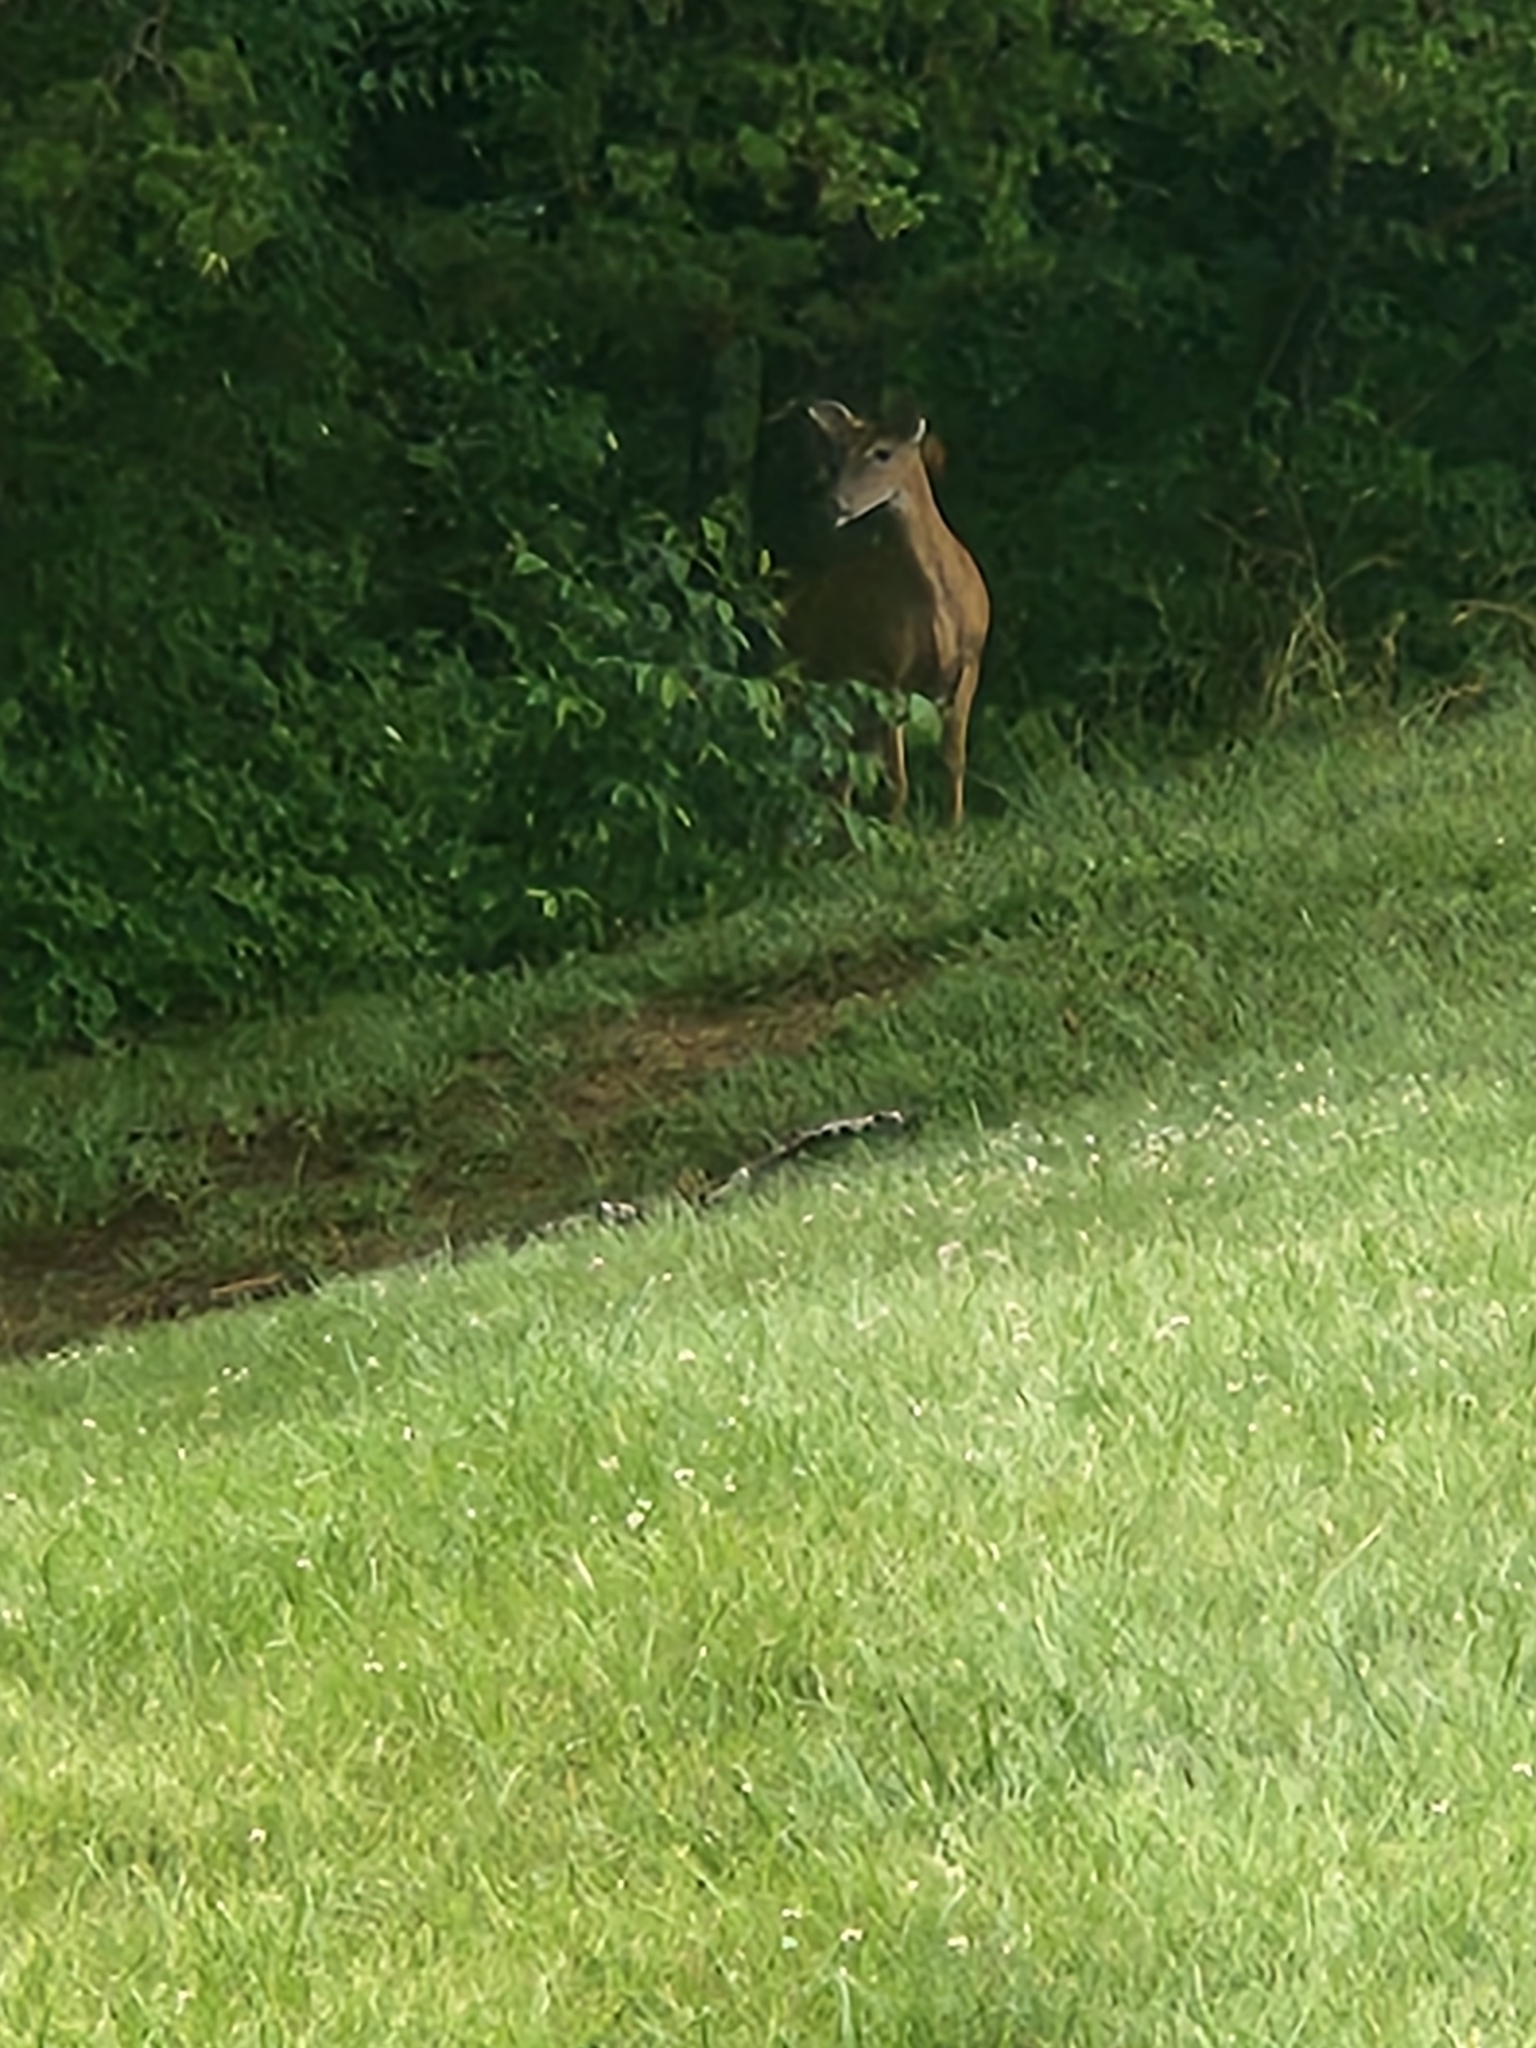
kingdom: Animalia
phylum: Chordata
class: Mammalia
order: Artiodactyla
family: Cervidae
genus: Odocoileus
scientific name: Odocoileus virginianus
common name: White-tailed deer
